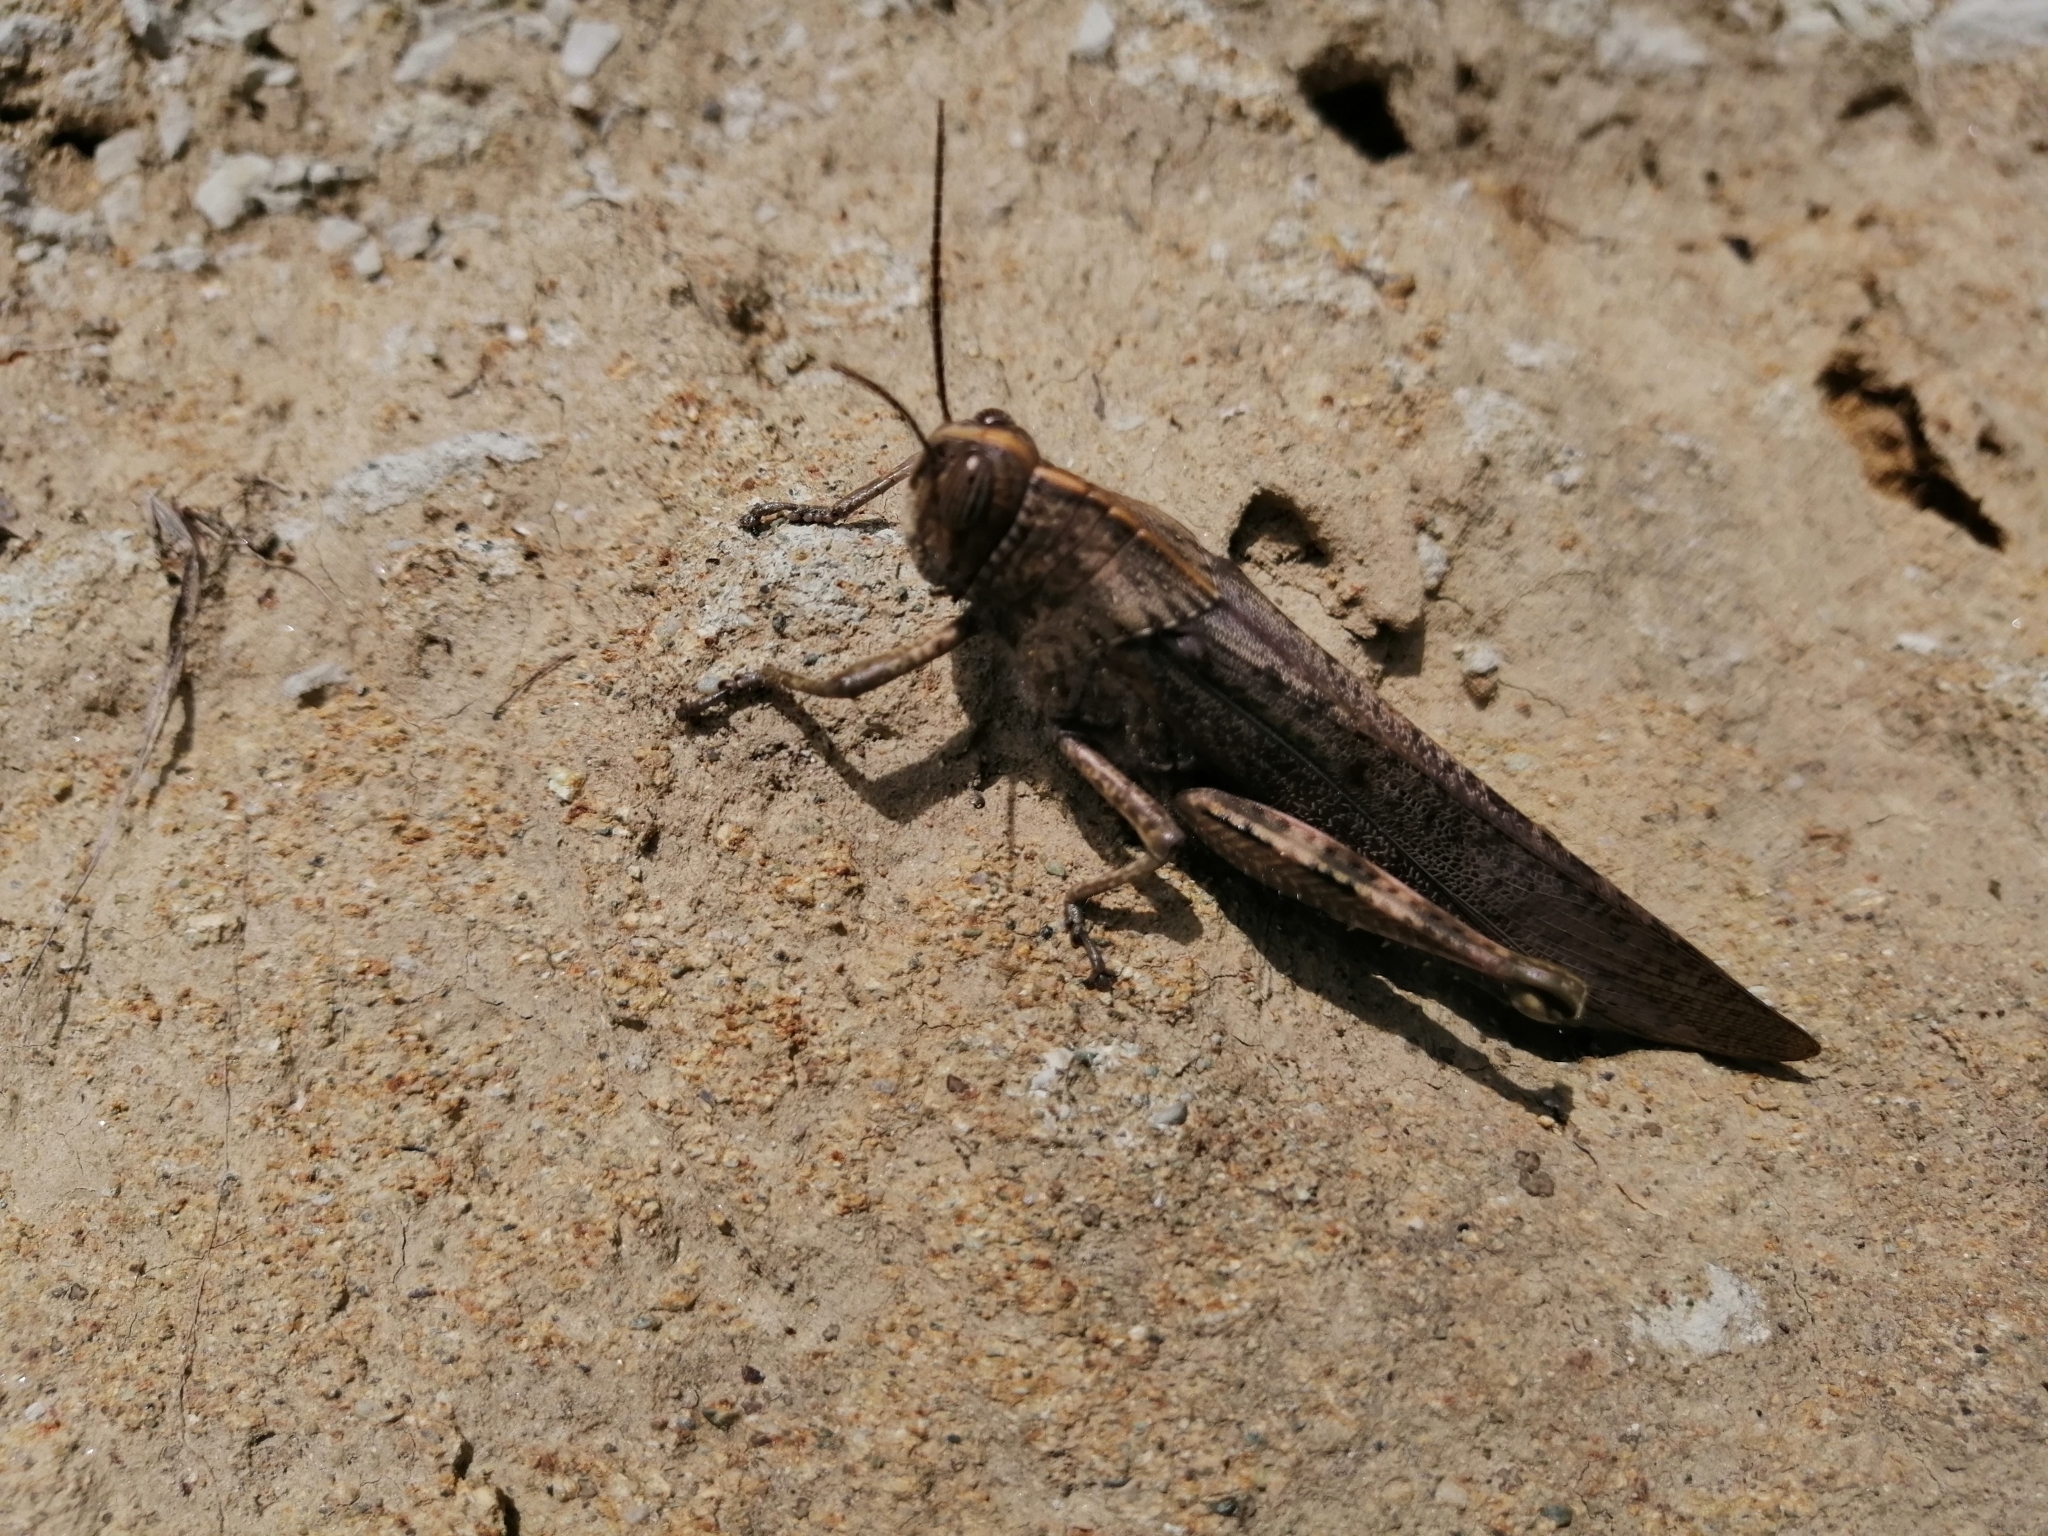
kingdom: Animalia
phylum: Arthropoda
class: Insecta
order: Orthoptera
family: Acrididae
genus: Anacridium
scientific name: Anacridium aegyptium
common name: Egyptian grasshopper
